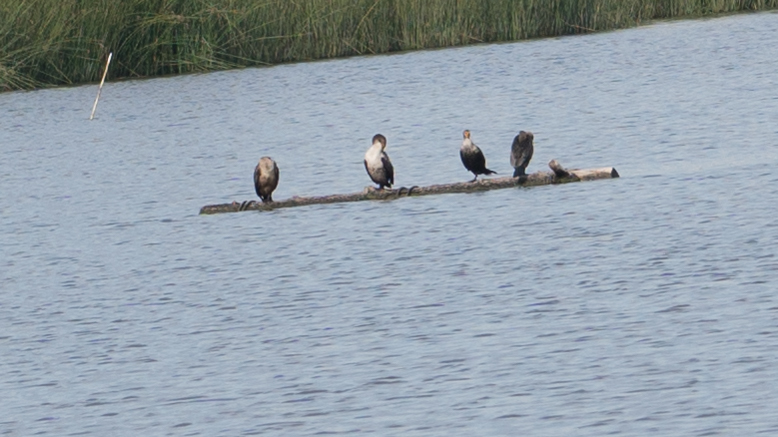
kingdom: Animalia
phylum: Chordata
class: Aves
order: Suliformes
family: Phalacrocoracidae
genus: Phalacrocorax
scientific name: Phalacrocorax auritus
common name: Double-crested cormorant
